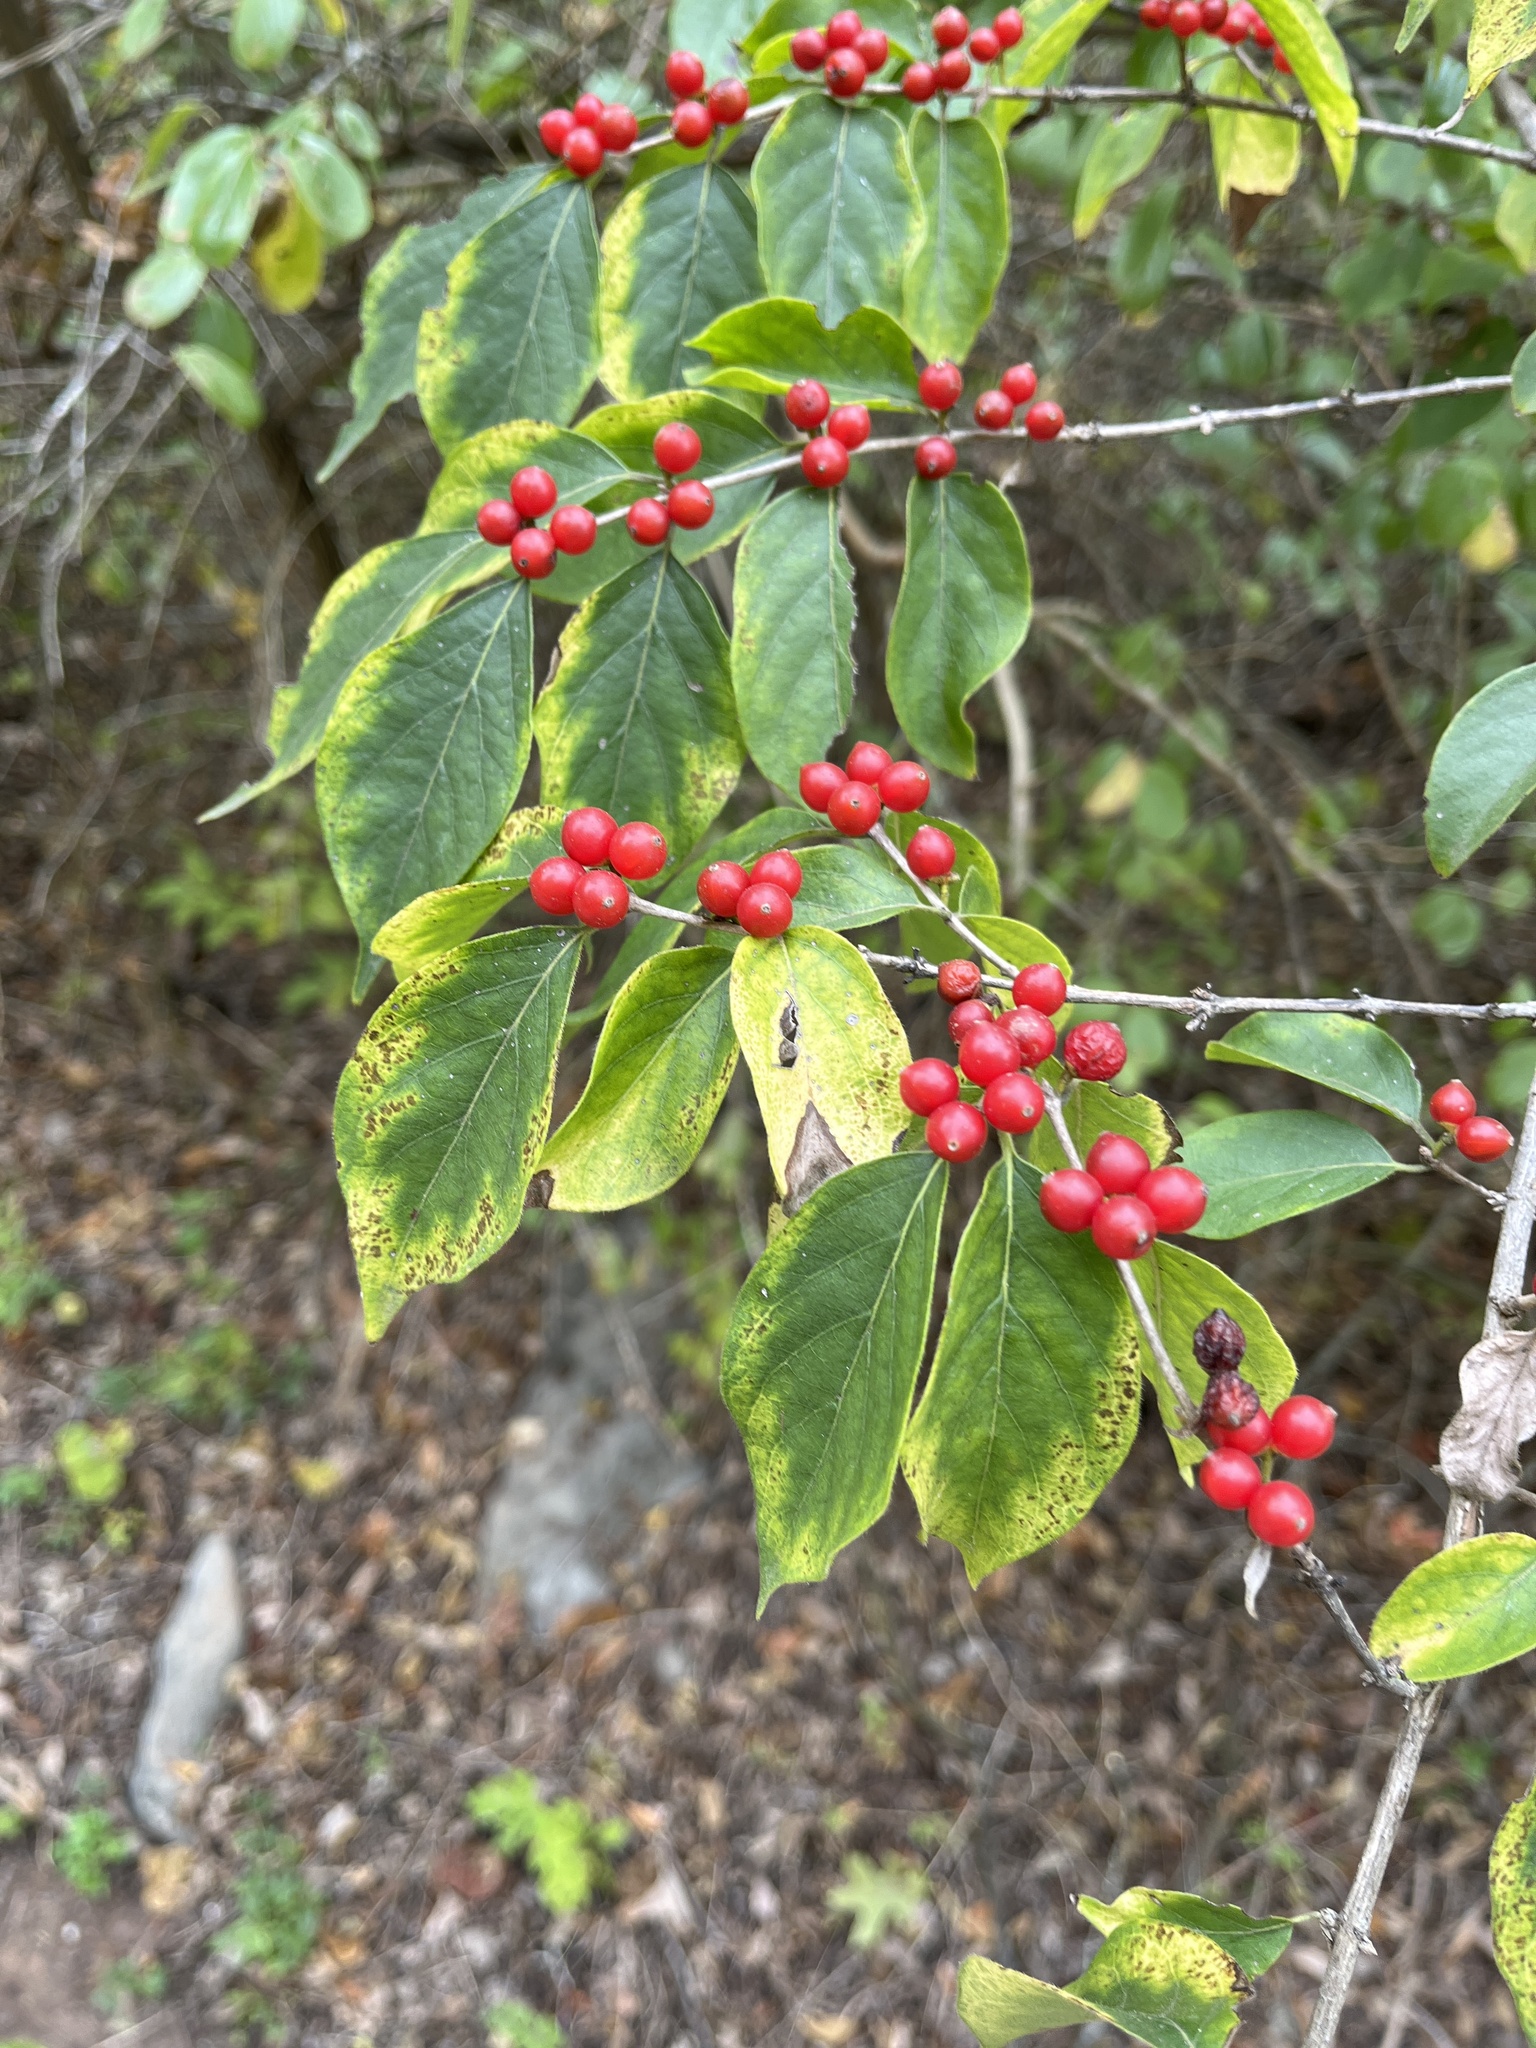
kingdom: Plantae
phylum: Tracheophyta
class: Magnoliopsida
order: Dipsacales
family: Caprifoliaceae
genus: Lonicera
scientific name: Lonicera maackii
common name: Amur honeysuckle
